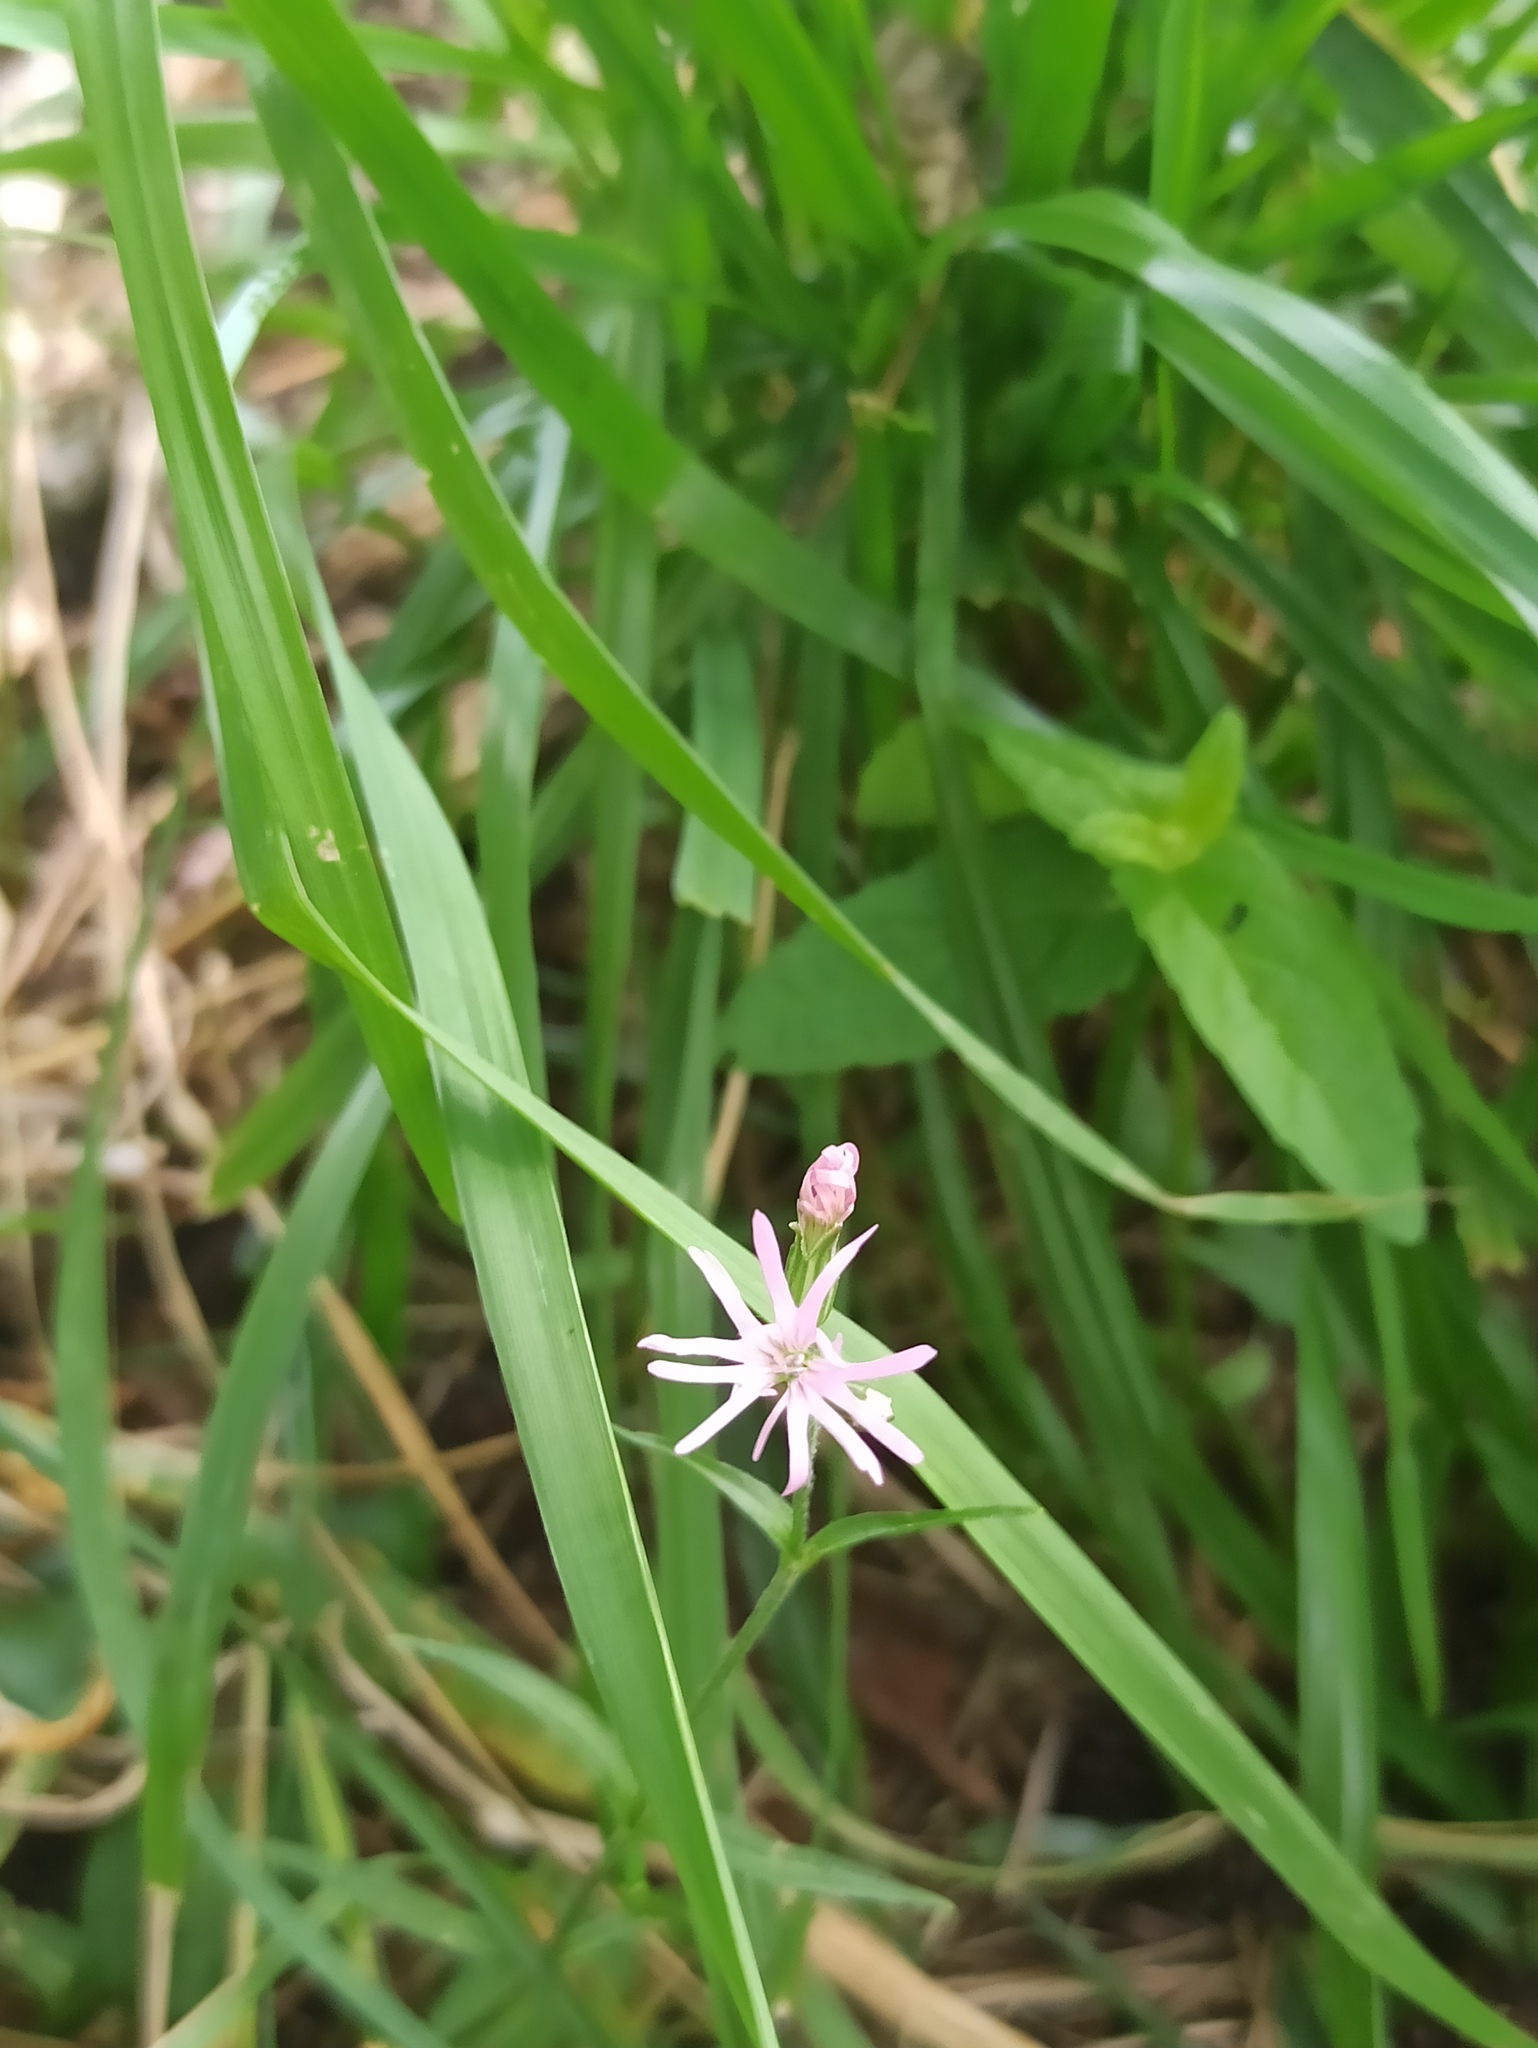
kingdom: Plantae
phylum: Tracheophyta
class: Magnoliopsida
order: Caryophyllales
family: Caryophyllaceae
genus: Silene
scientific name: Silene flos-cuculi
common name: Ragged-robin
